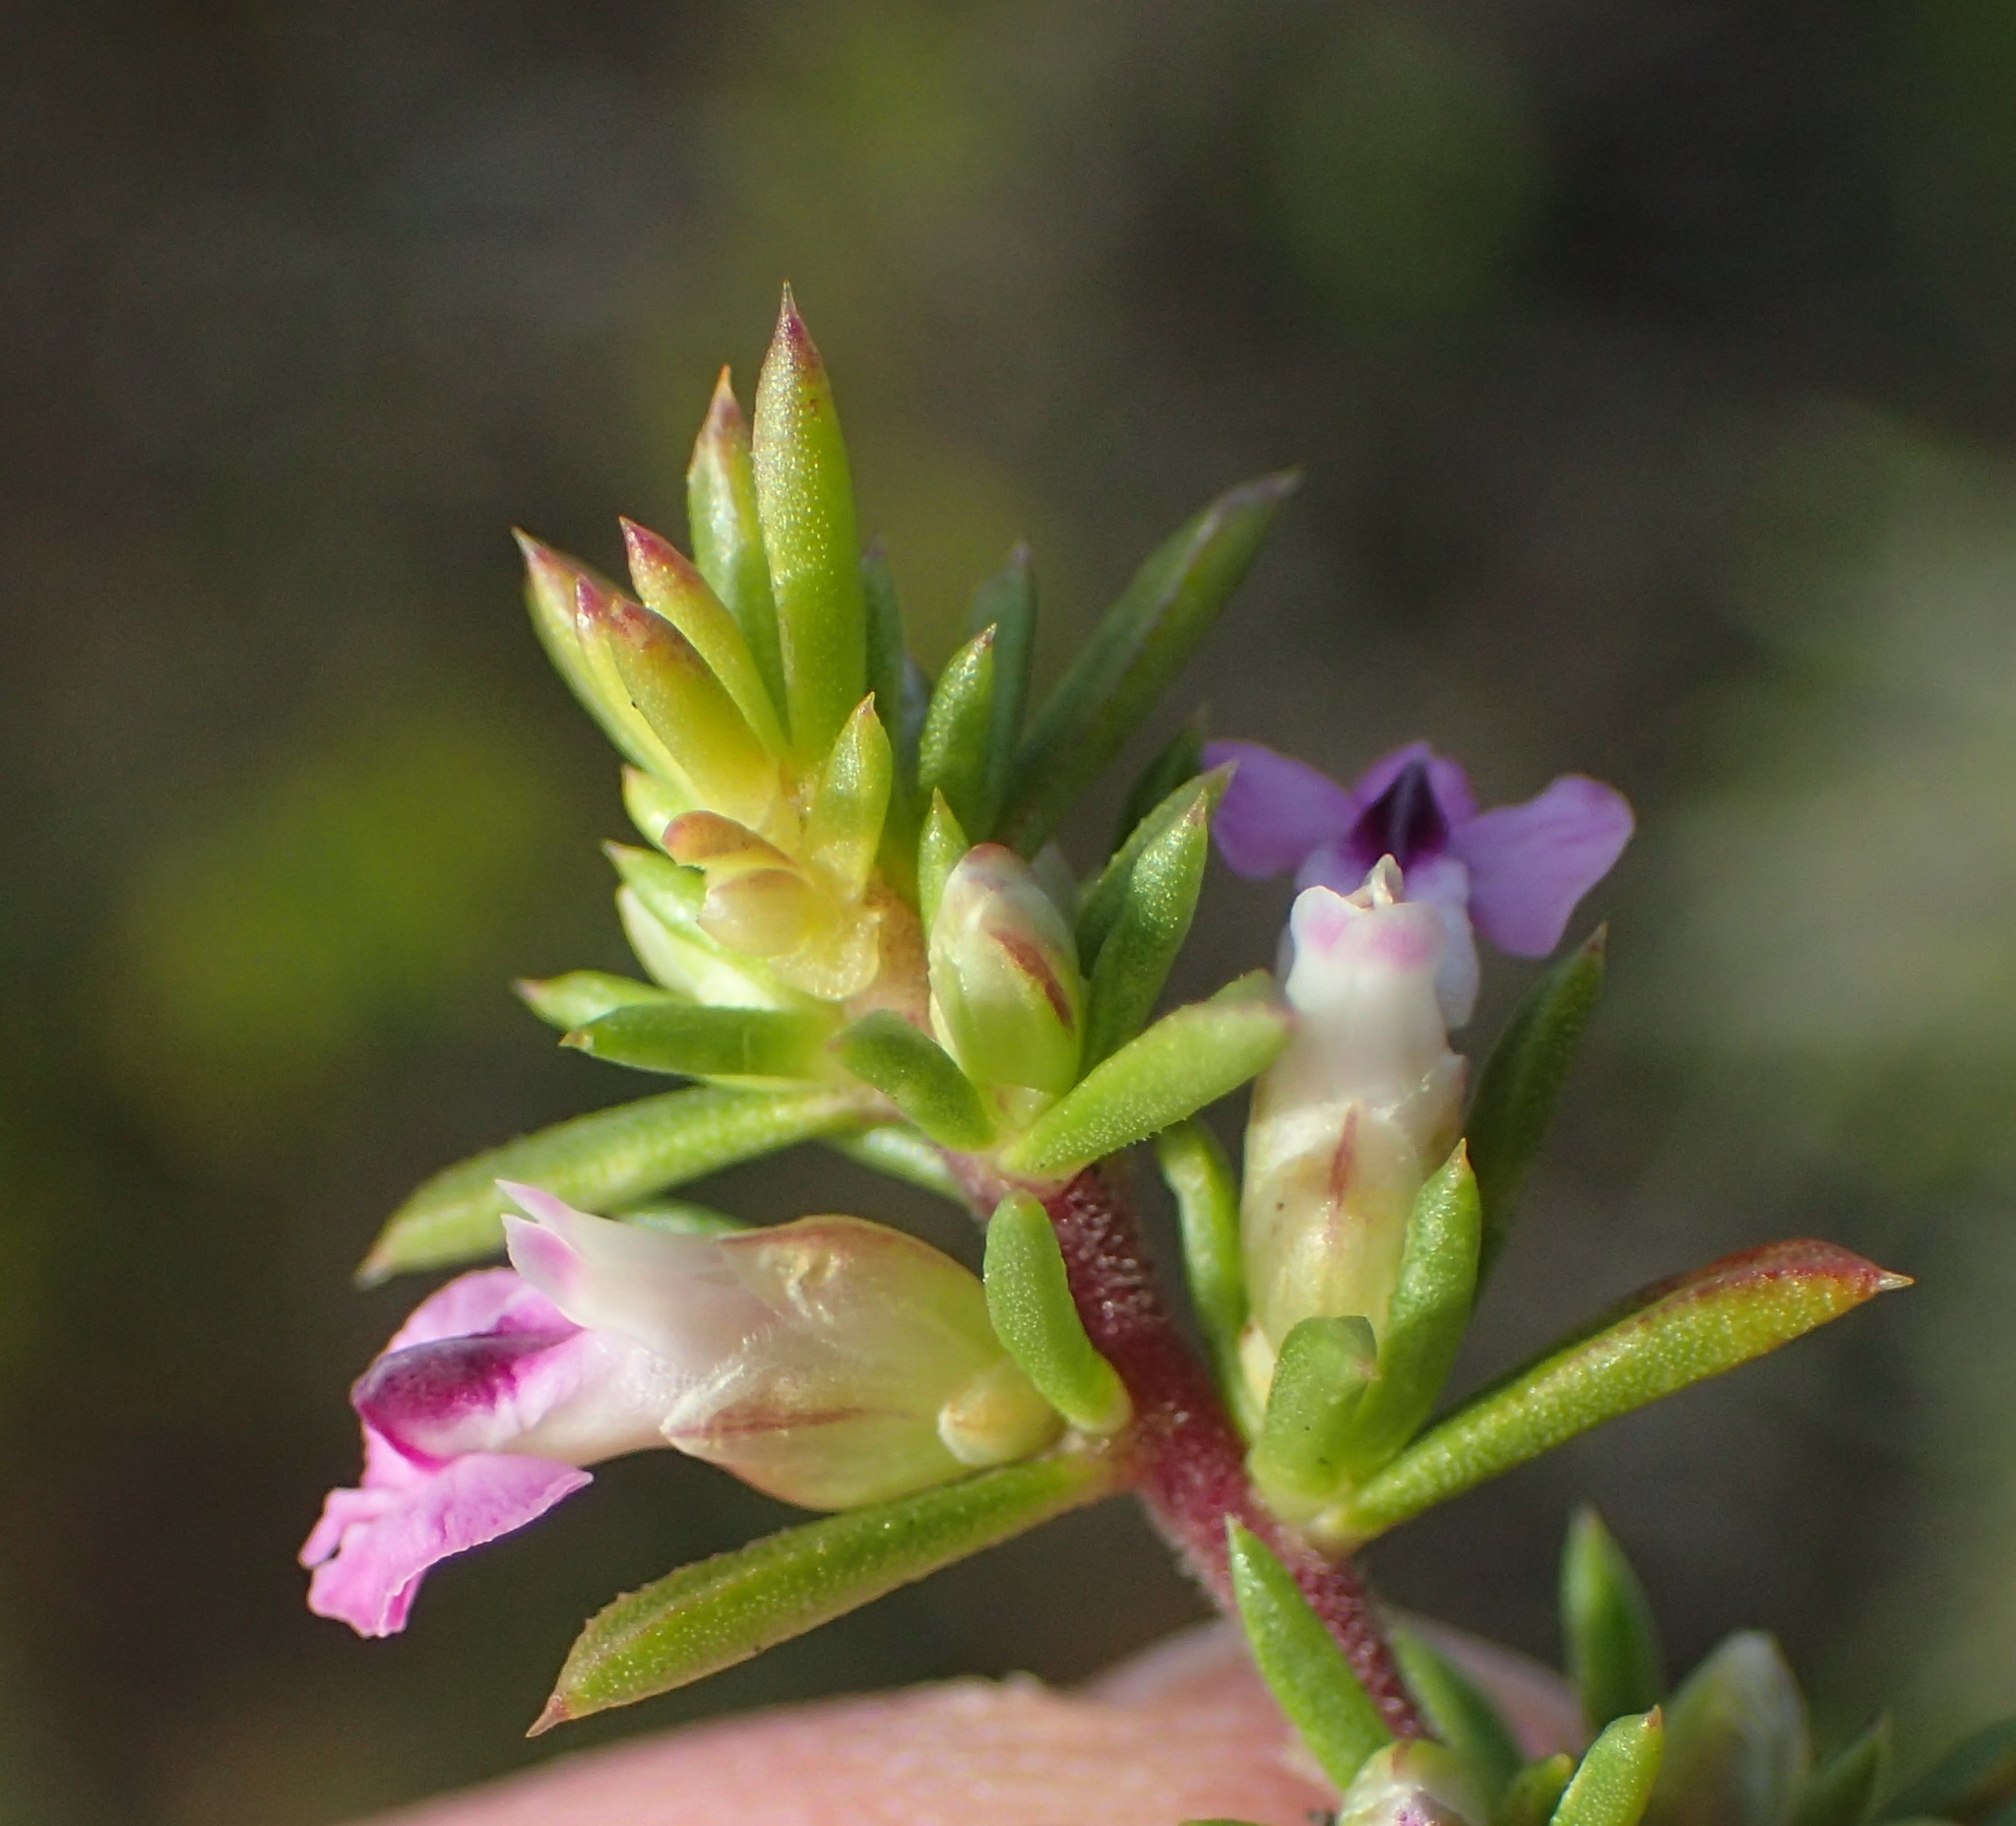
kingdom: Plantae
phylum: Tracheophyta
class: Magnoliopsida
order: Fabales
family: Polygalaceae
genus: Muraltia
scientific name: Muraltia ericifolia
